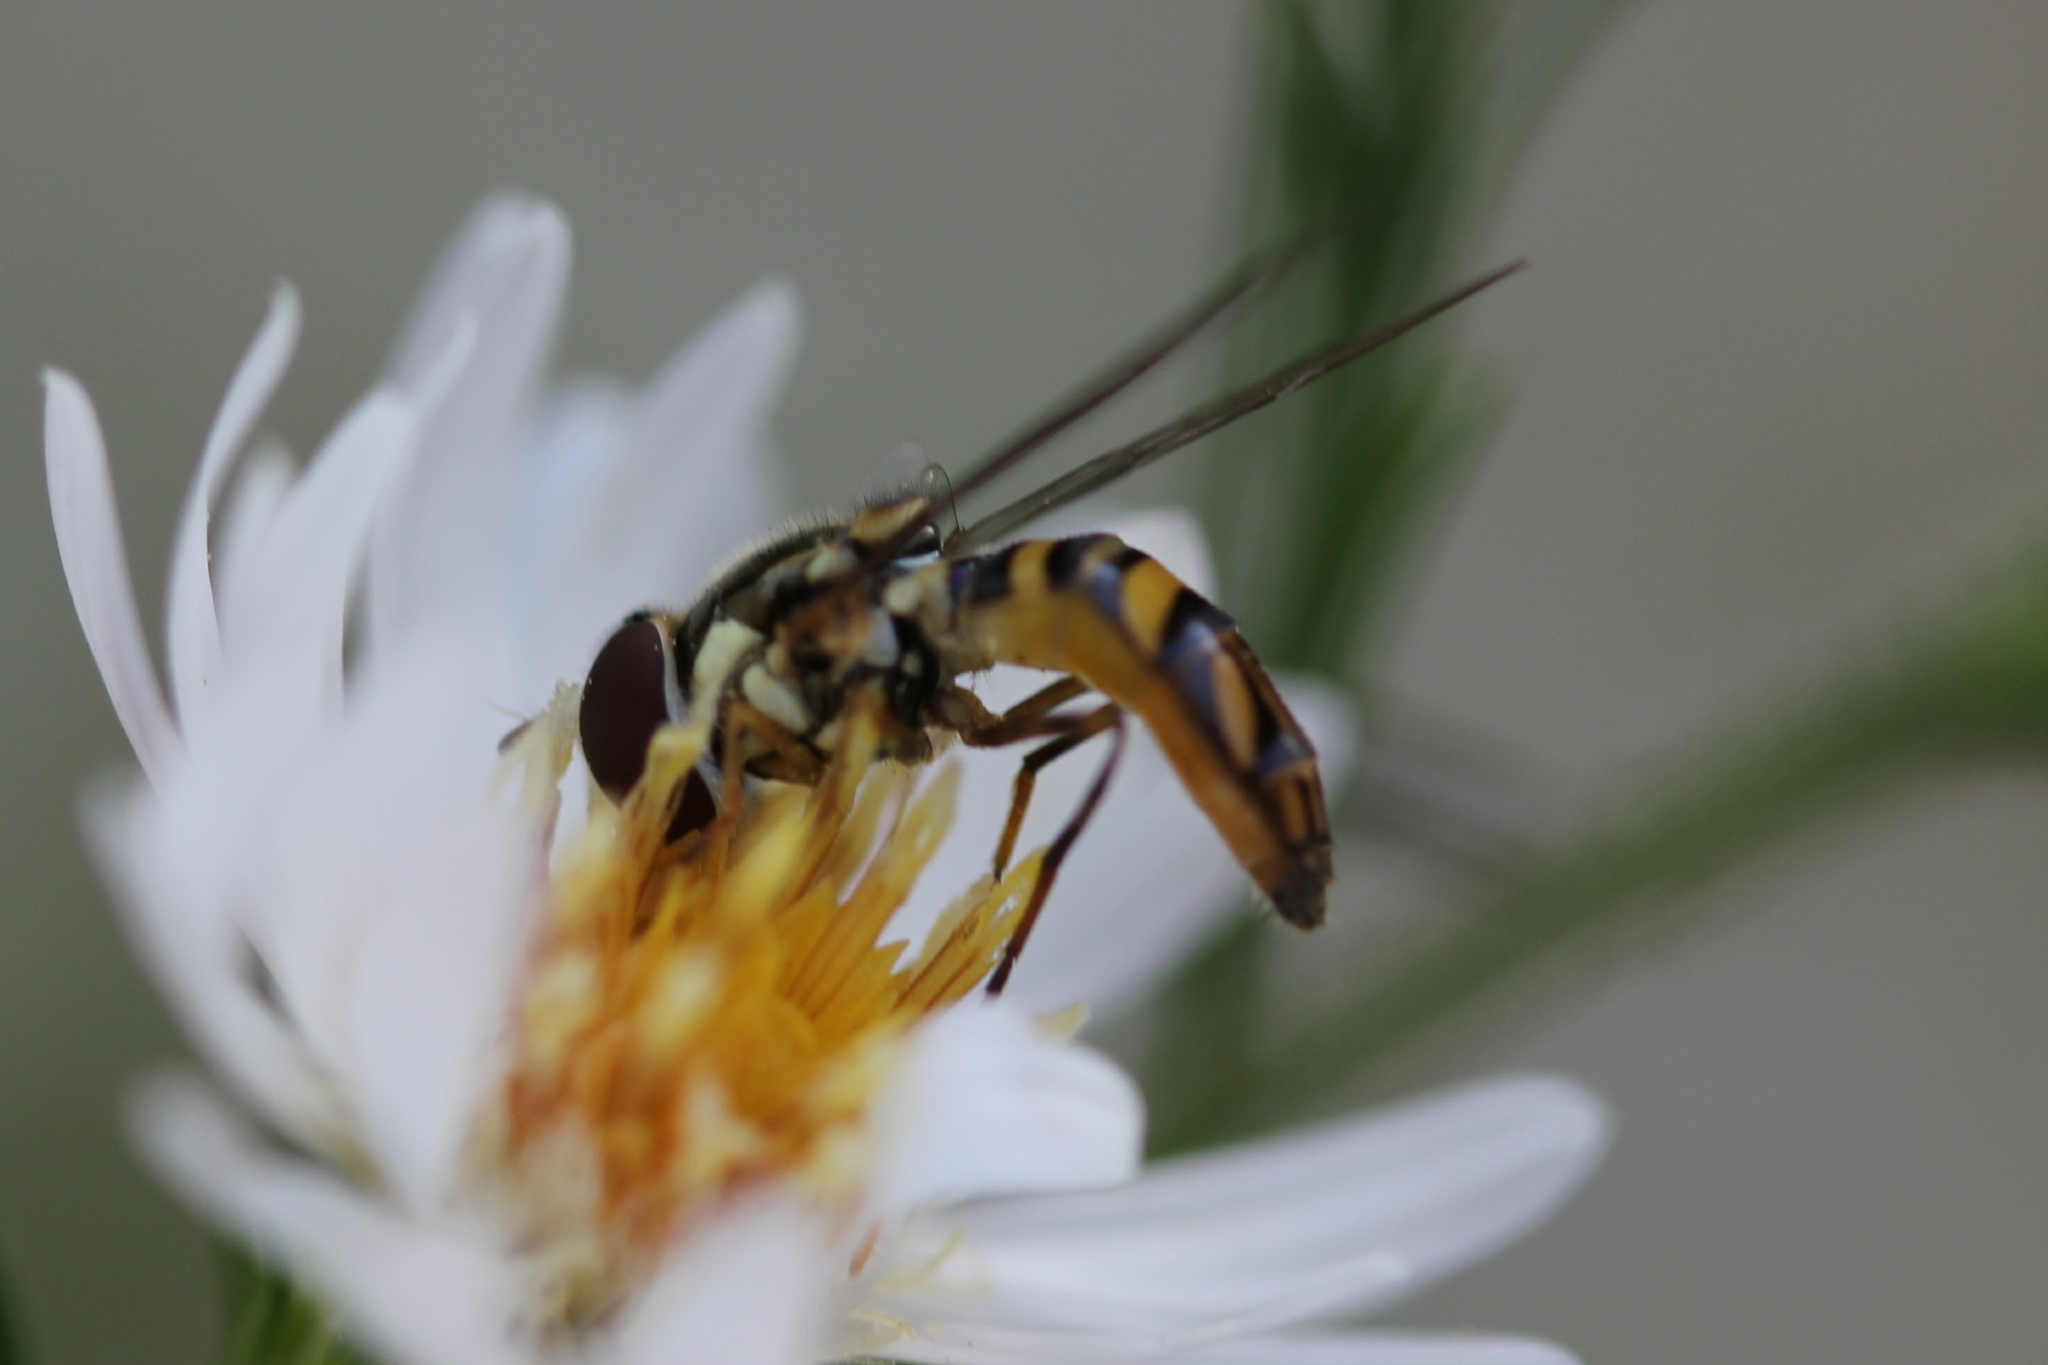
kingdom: Animalia
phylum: Arthropoda
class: Insecta
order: Diptera
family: Syrphidae
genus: Allograpta
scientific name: Allograpta obliqua
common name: Common oblique syrphid
